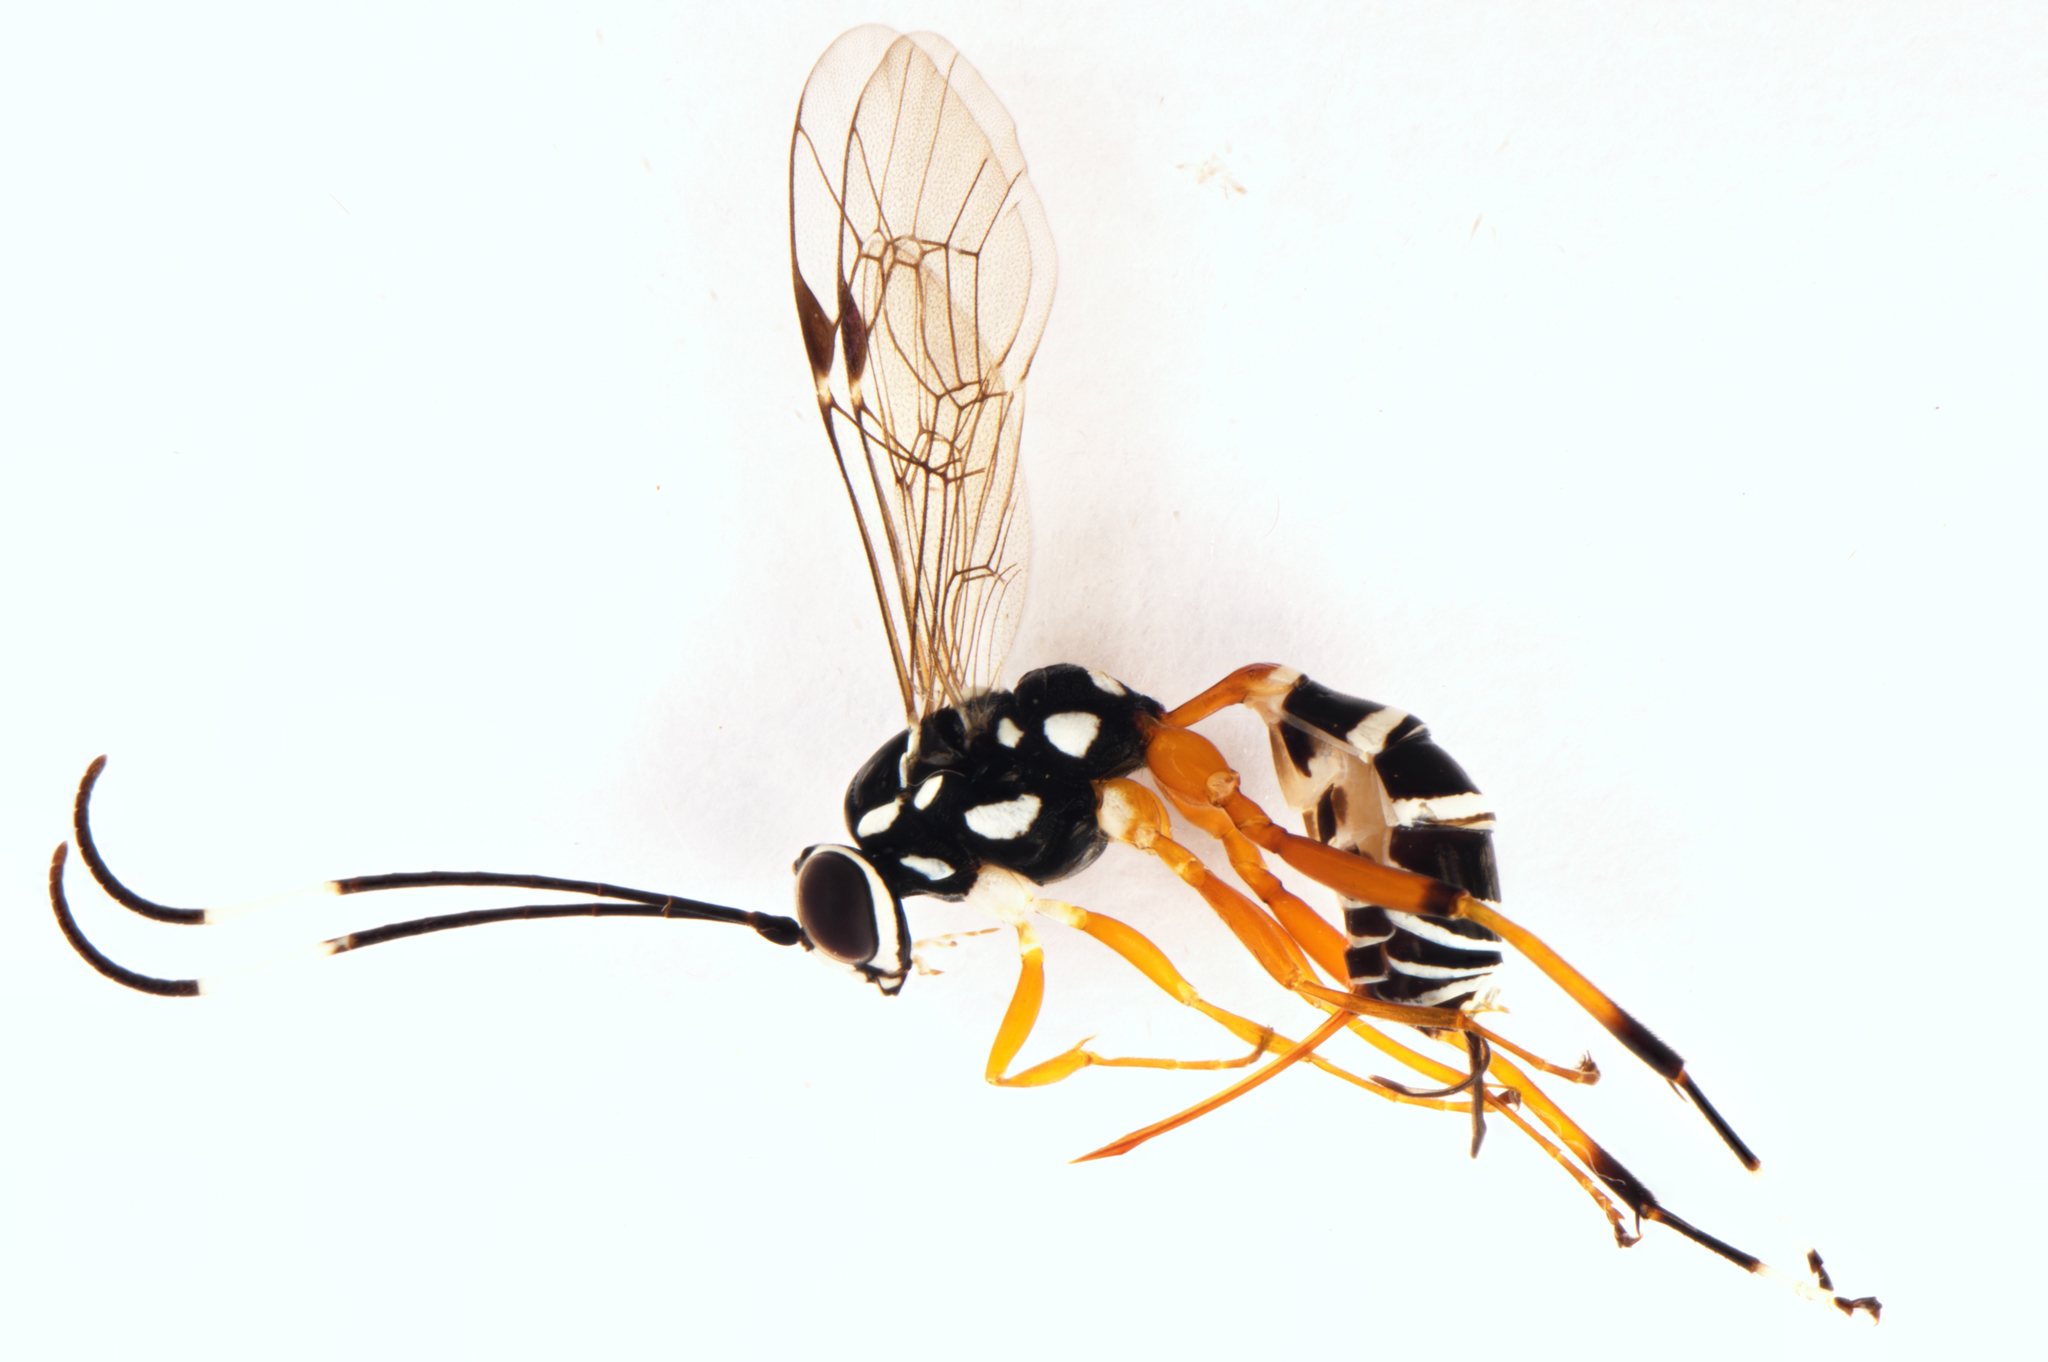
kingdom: Animalia
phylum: Arthropoda
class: Insecta
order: Hymenoptera
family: Ichneumonidae
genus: Glabridorsum
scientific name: Glabridorsum stokesii
